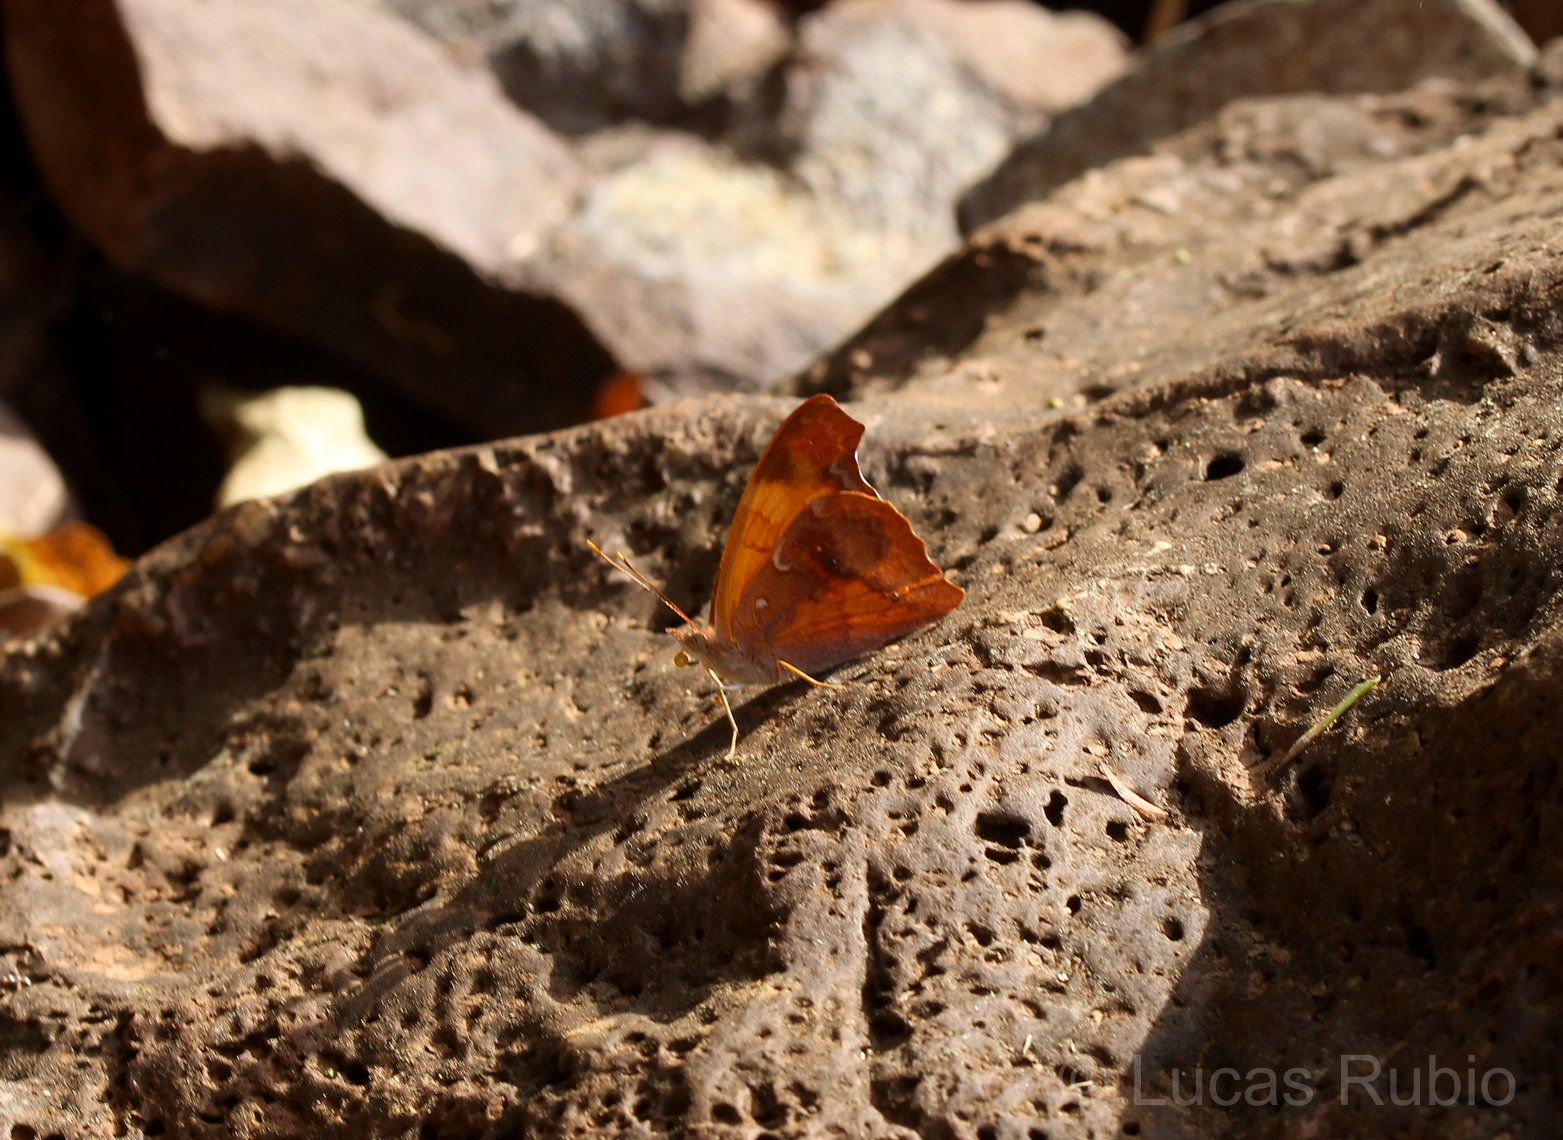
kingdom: Animalia
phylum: Arthropoda
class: Insecta
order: Lepidoptera
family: Nymphalidae
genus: Temenis
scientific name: Temenis laothoe
